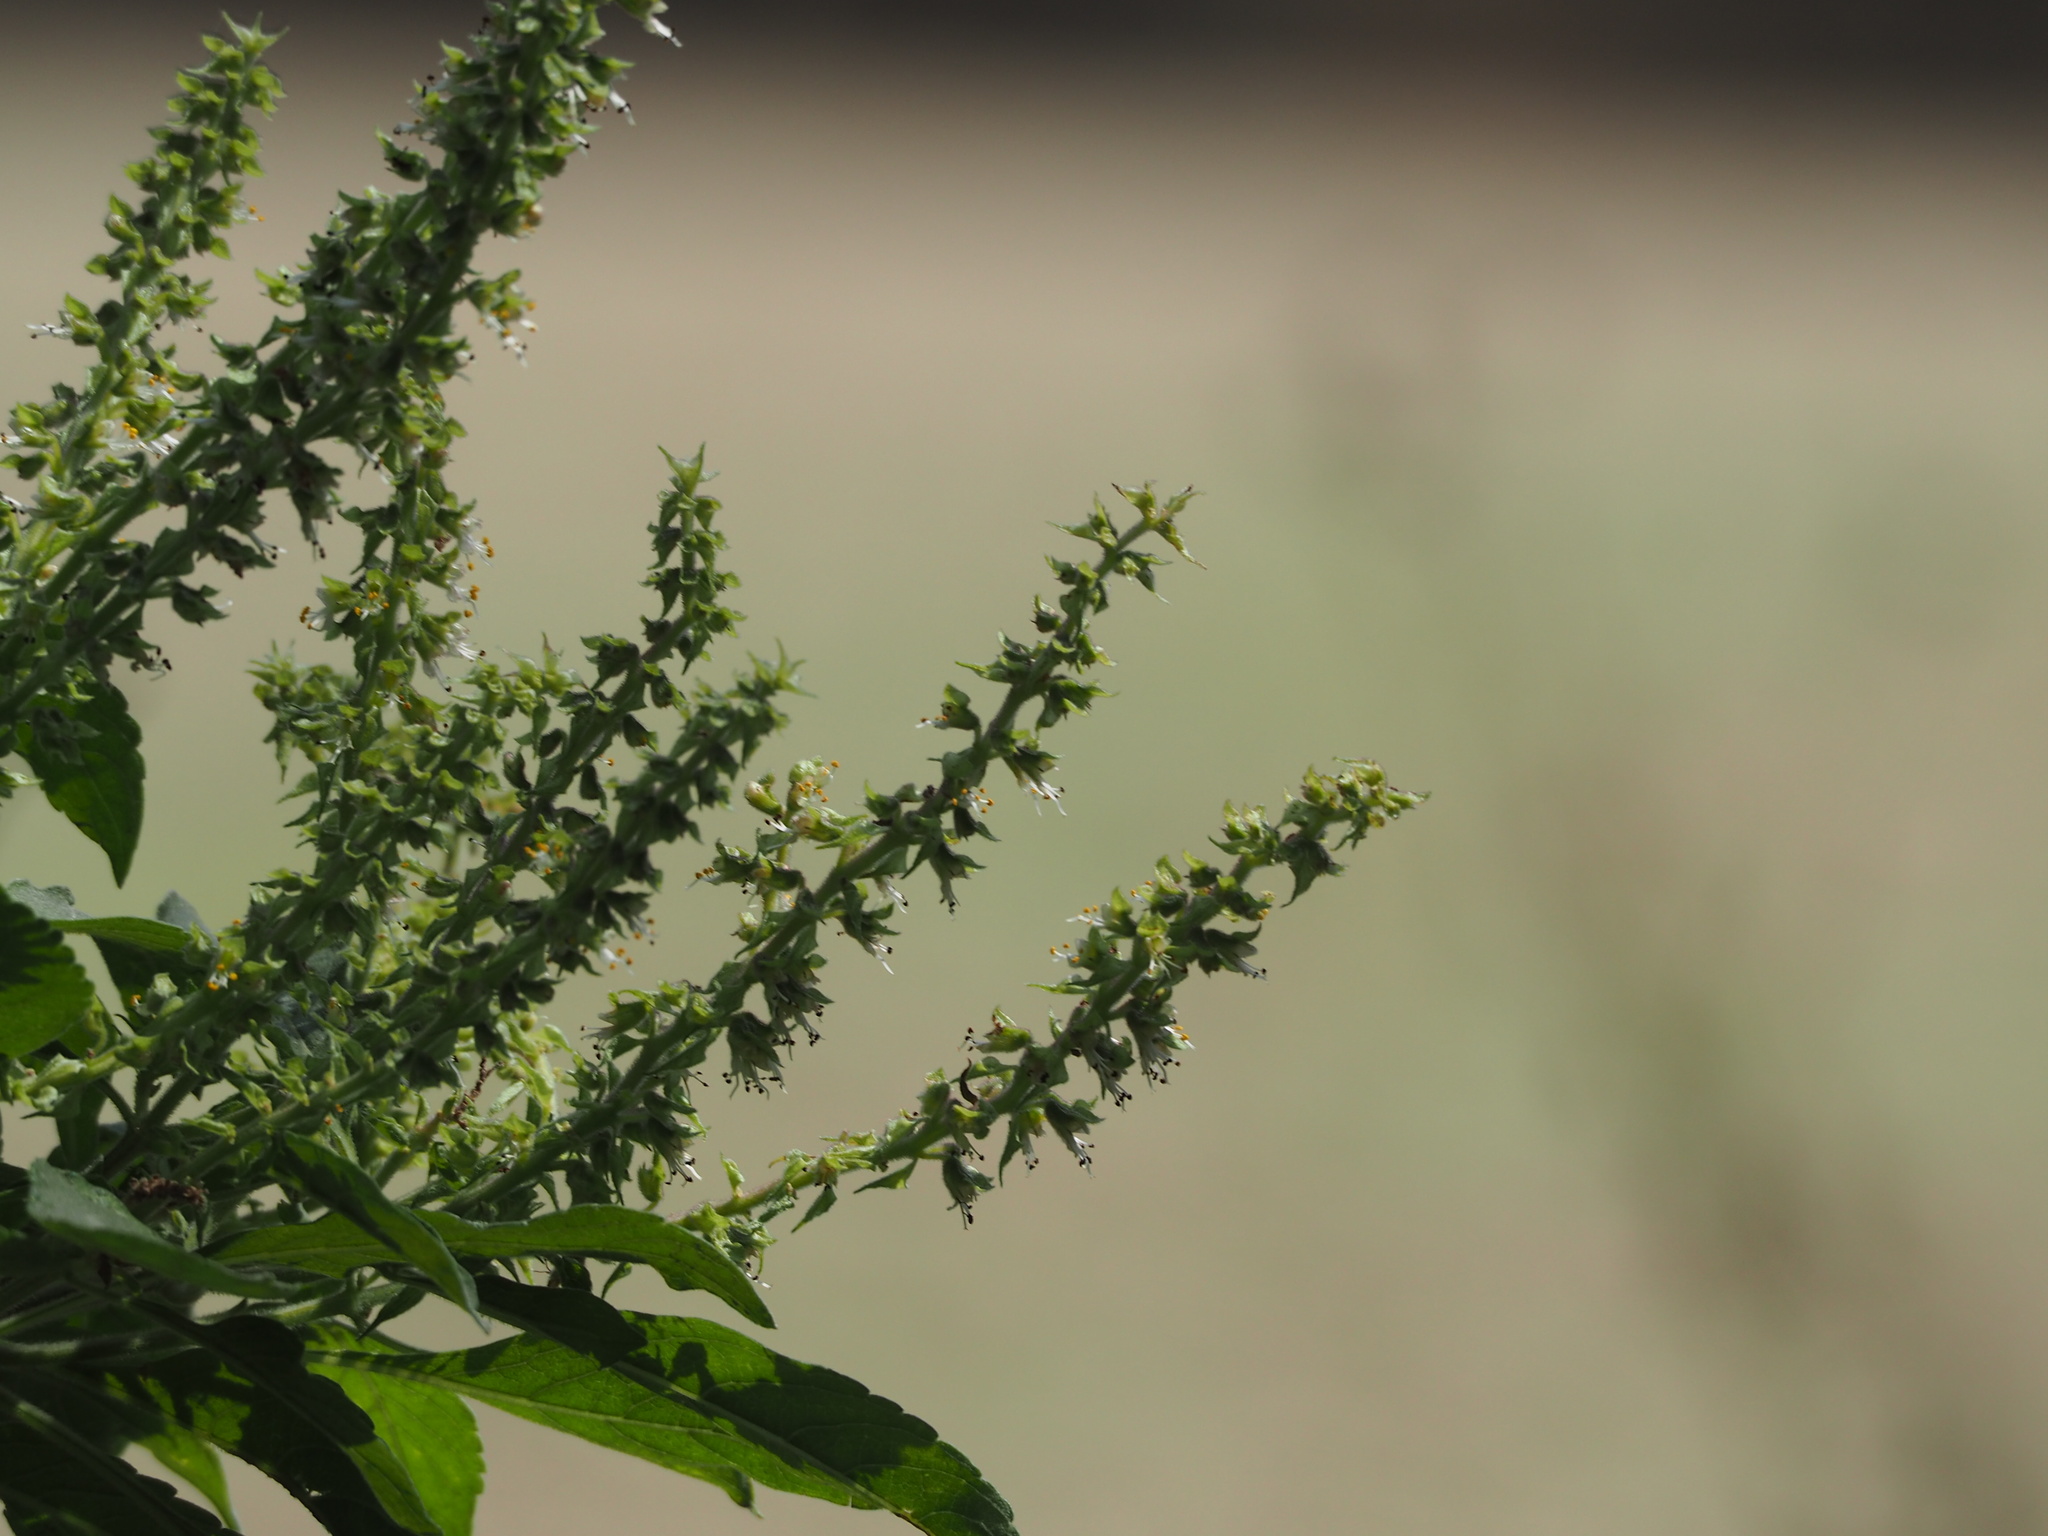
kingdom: Plantae
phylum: Tracheophyta
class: Magnoliopsida
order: Lamiales
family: Lamiaceae
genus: Ocimum
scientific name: Ocimum gratissimum
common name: African basil
